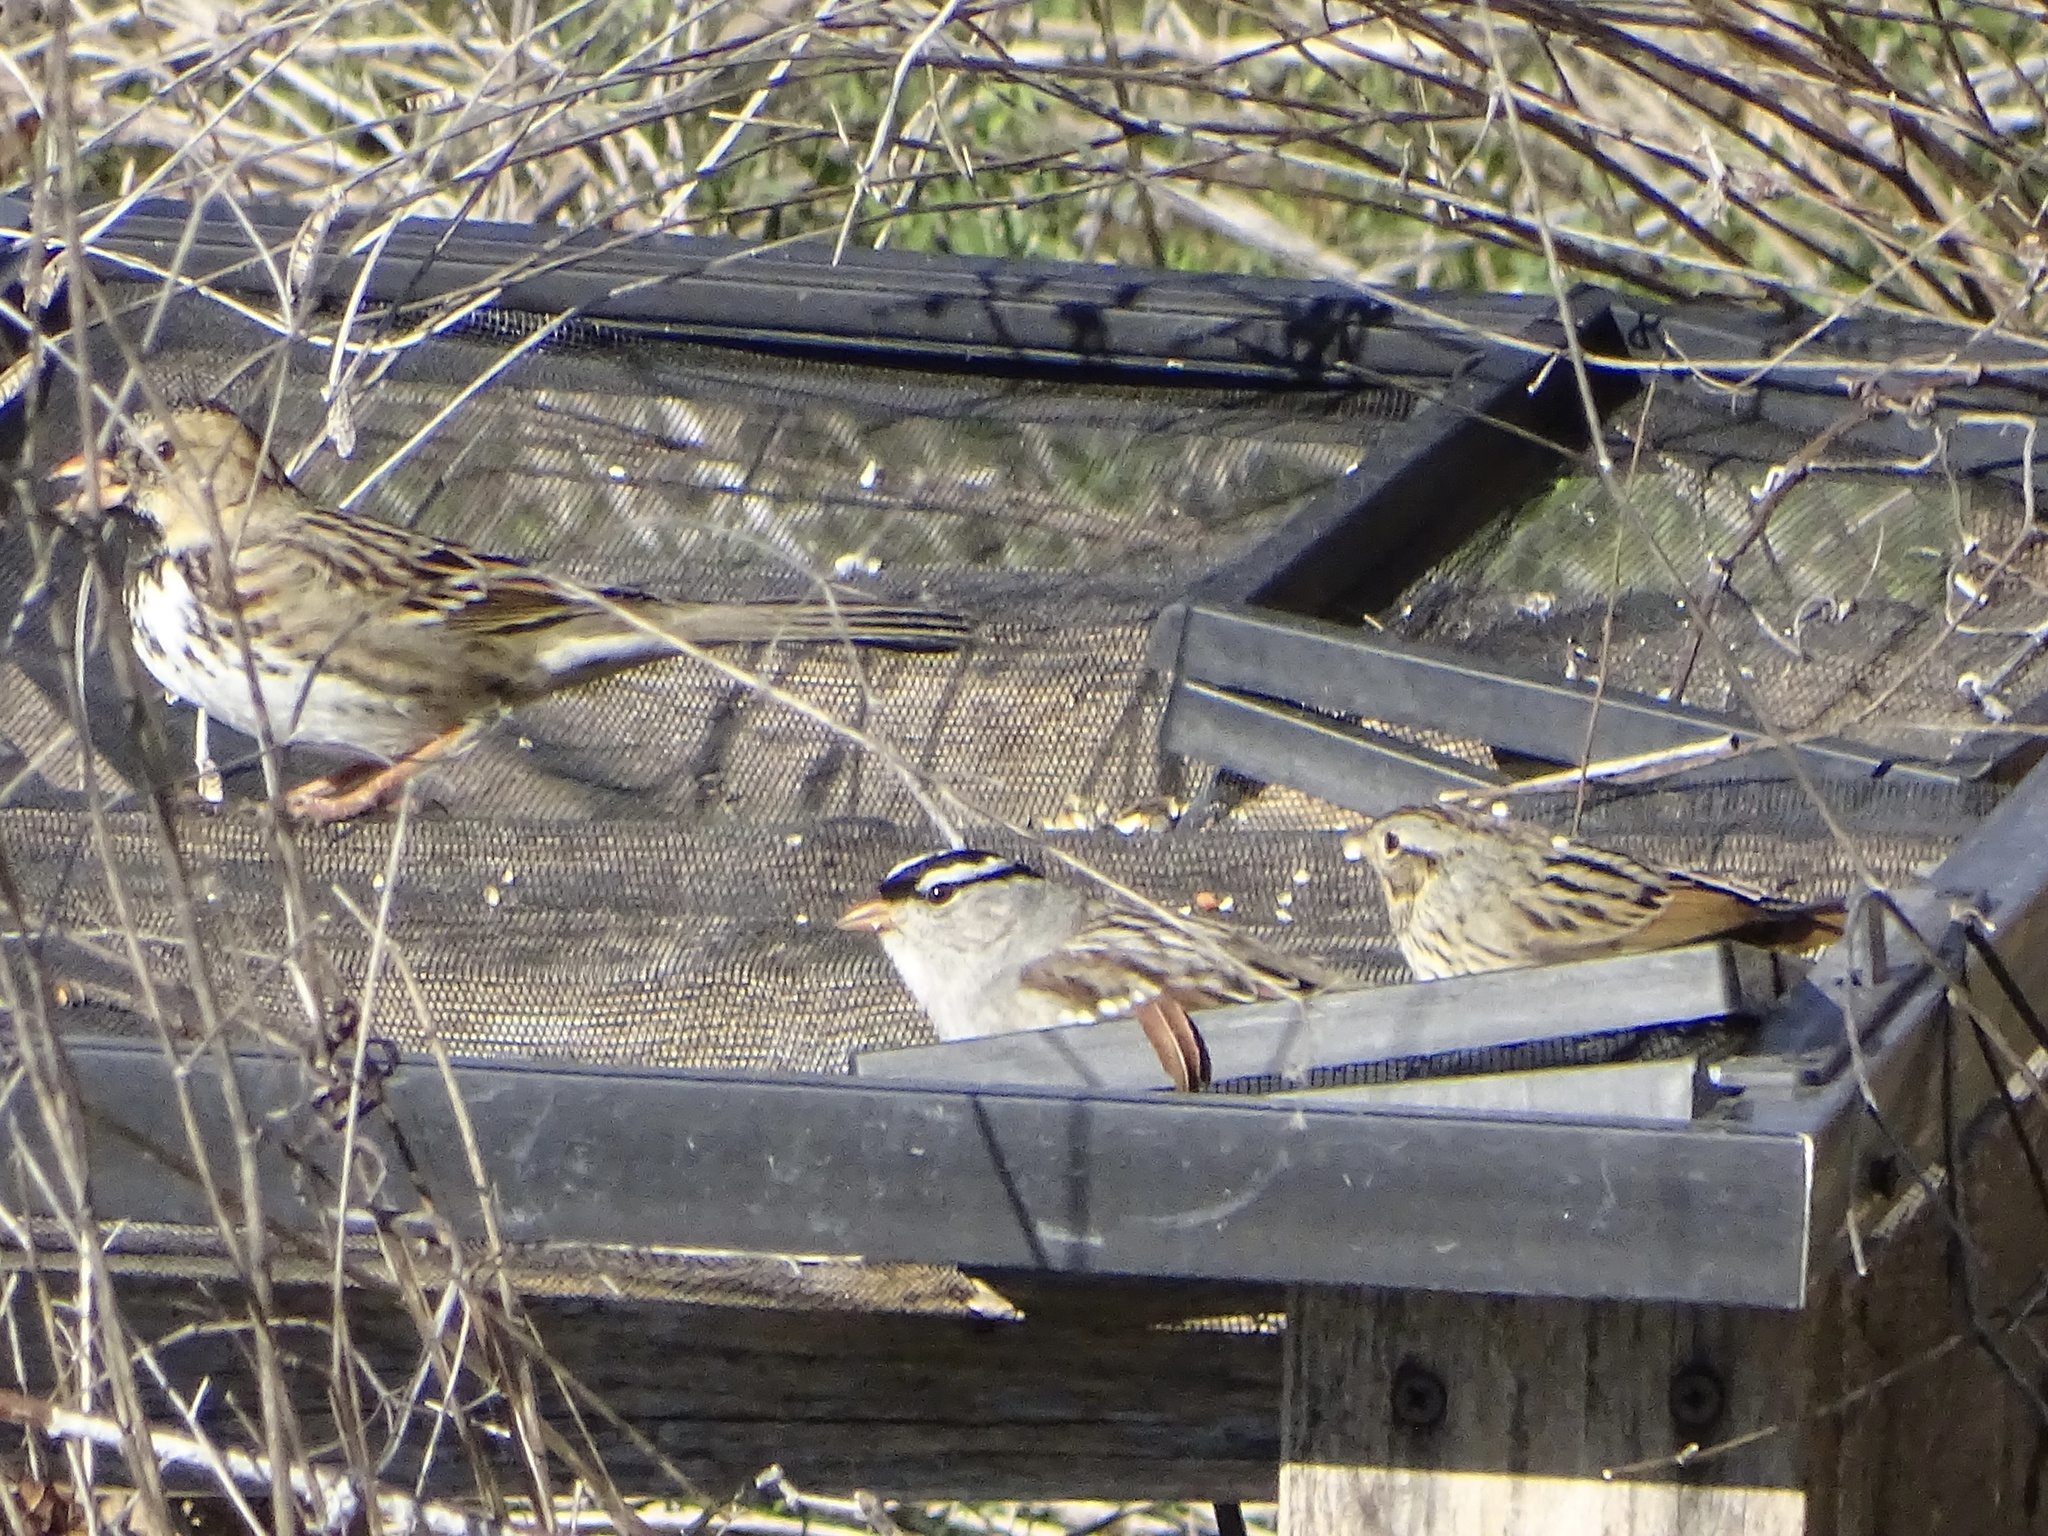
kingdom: Animalia
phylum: Chordata
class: Aves
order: Passeriformes
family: Passerellidae
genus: Zonotrichia
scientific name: Zonotrichia leucophrys
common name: White-crowned sparrow
